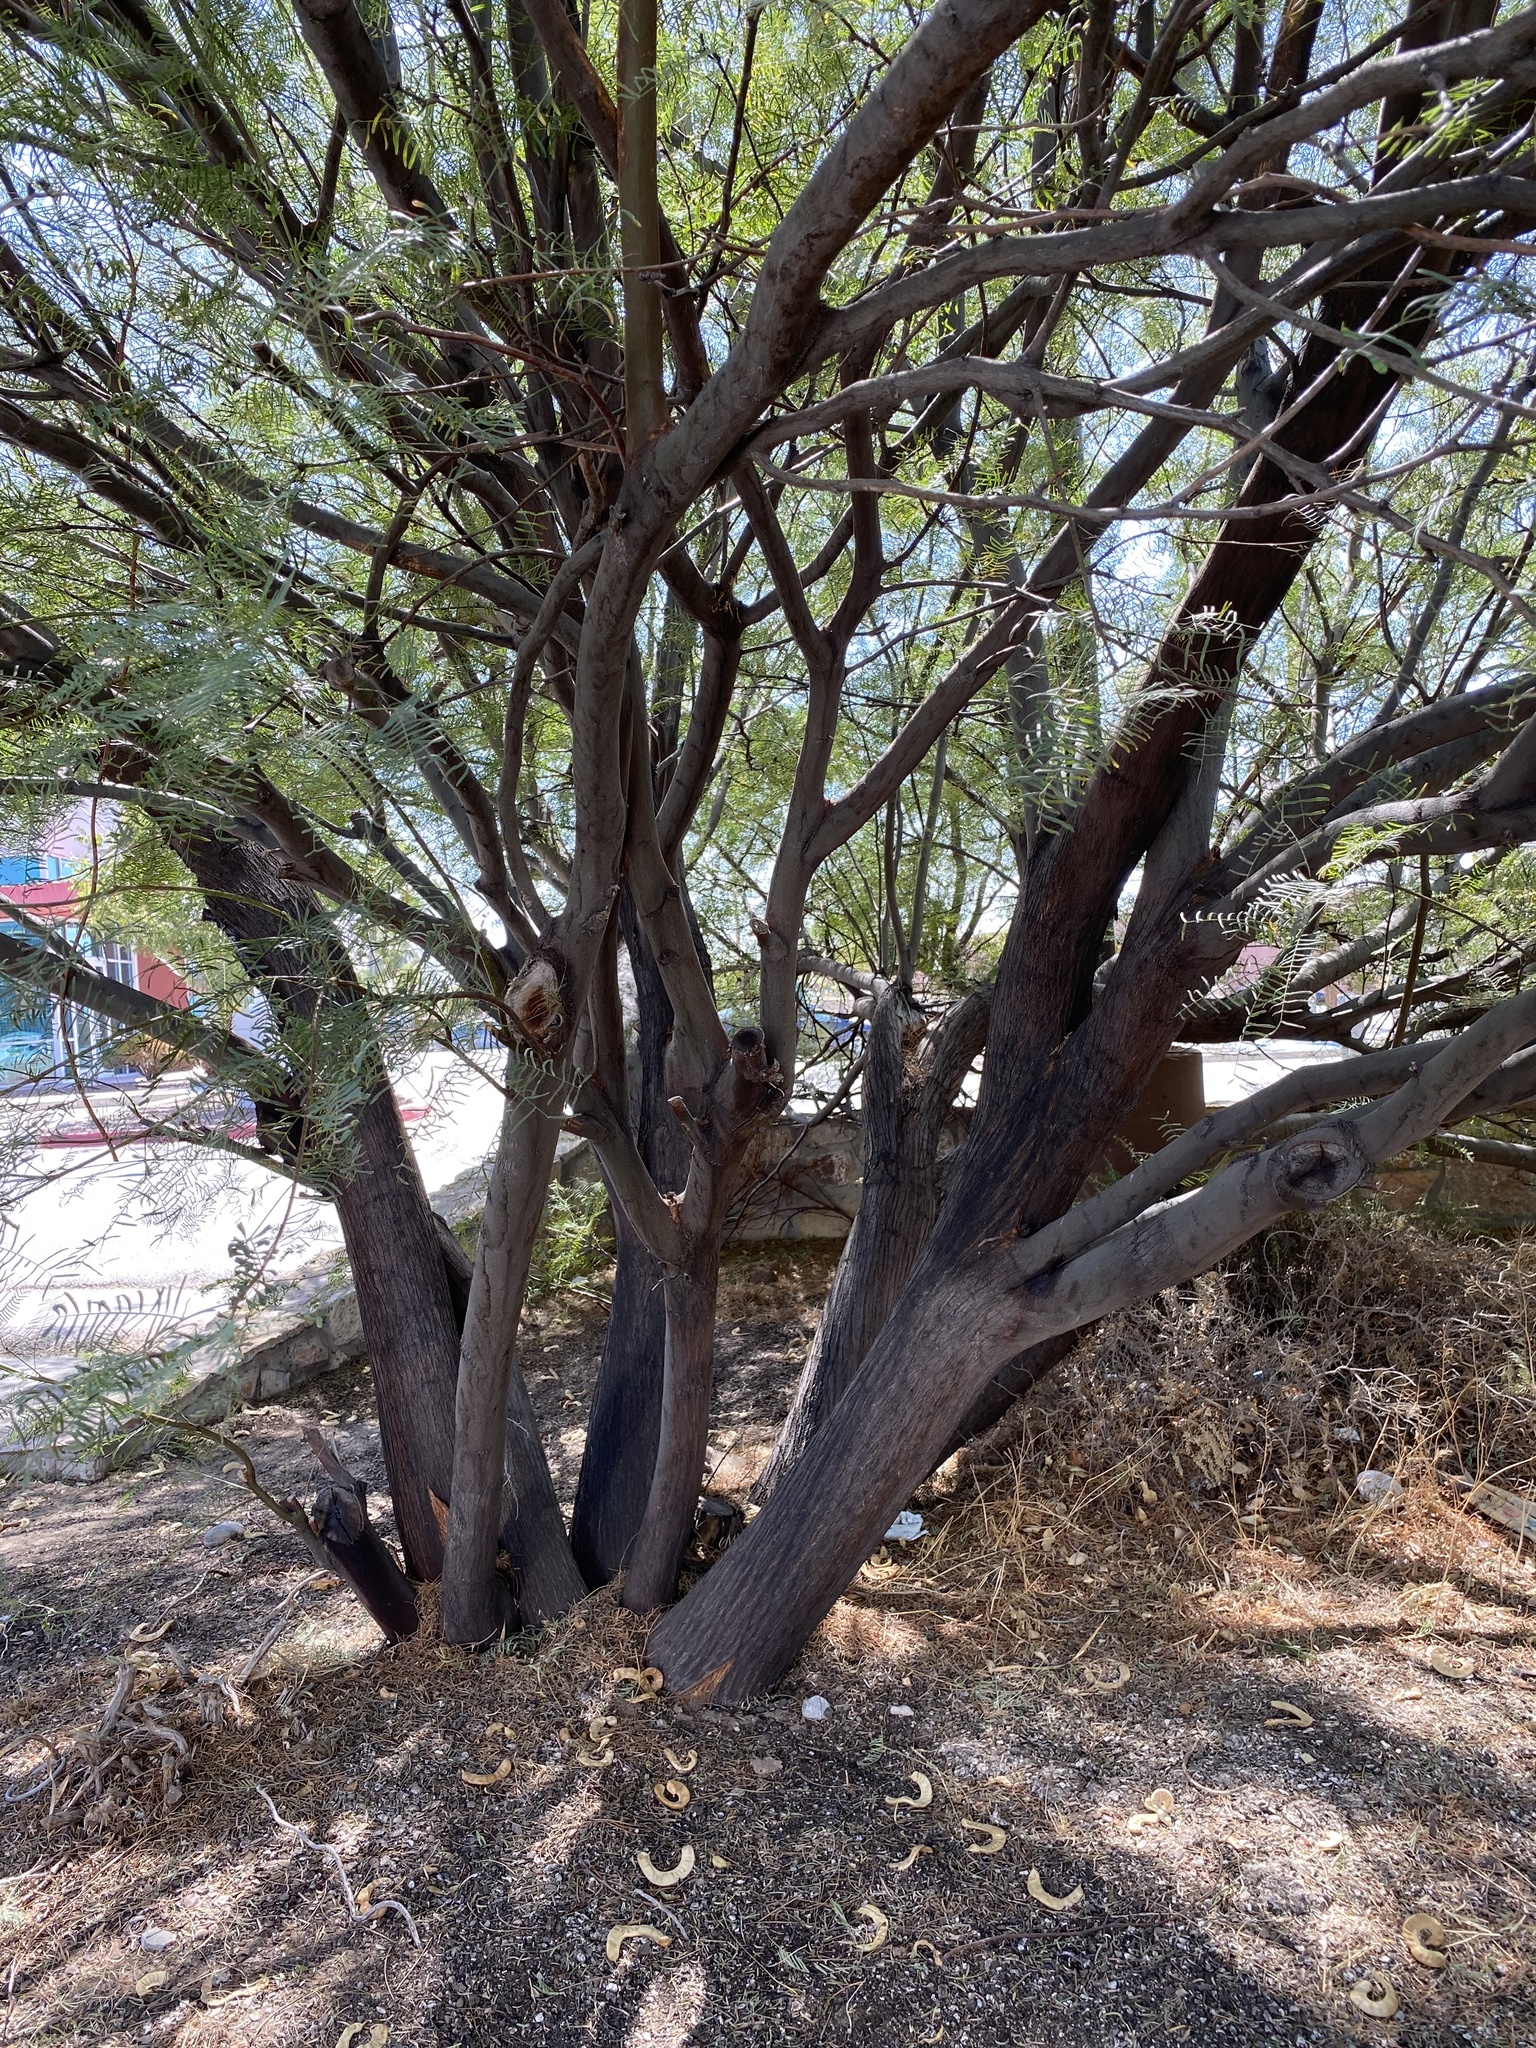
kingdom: Plantae
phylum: Tracheophyta
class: Magnoliopsida
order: Fabales
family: Fabaceae
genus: Prosopis
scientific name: Prosopis glandulosa
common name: Honey mesquite
